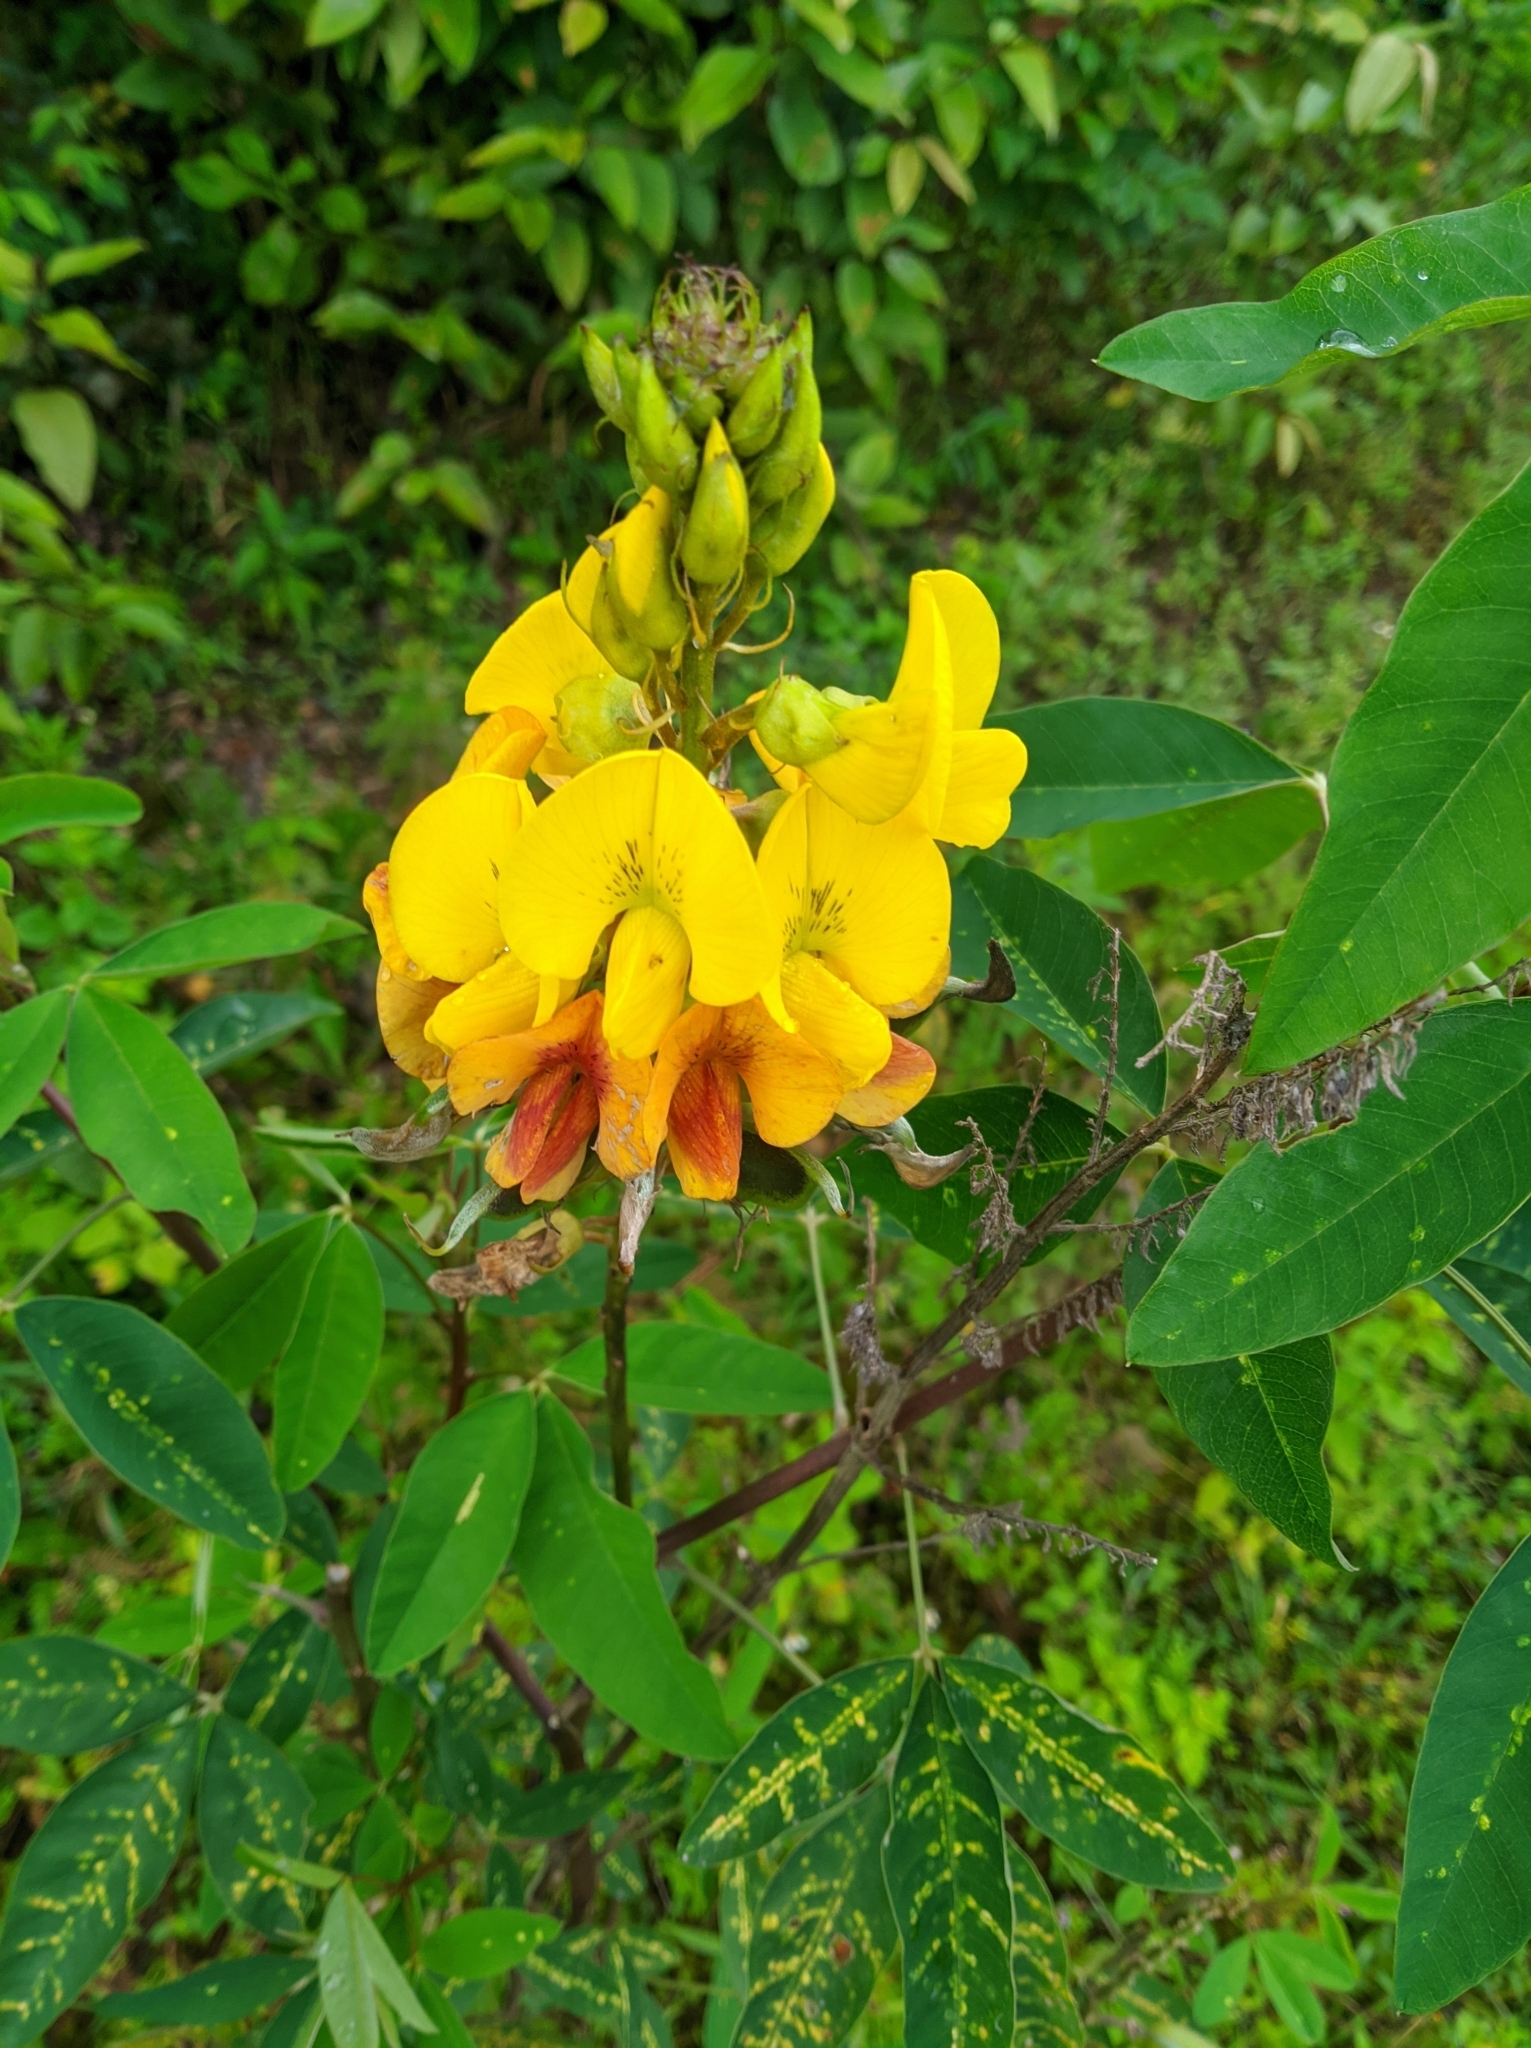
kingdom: Plantae
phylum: Tracheophyta
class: Magnoliopsida
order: Fabales
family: Fabaceae
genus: Crotalaria
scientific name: Crotalaria trichotoma
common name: West indian rattlebox
